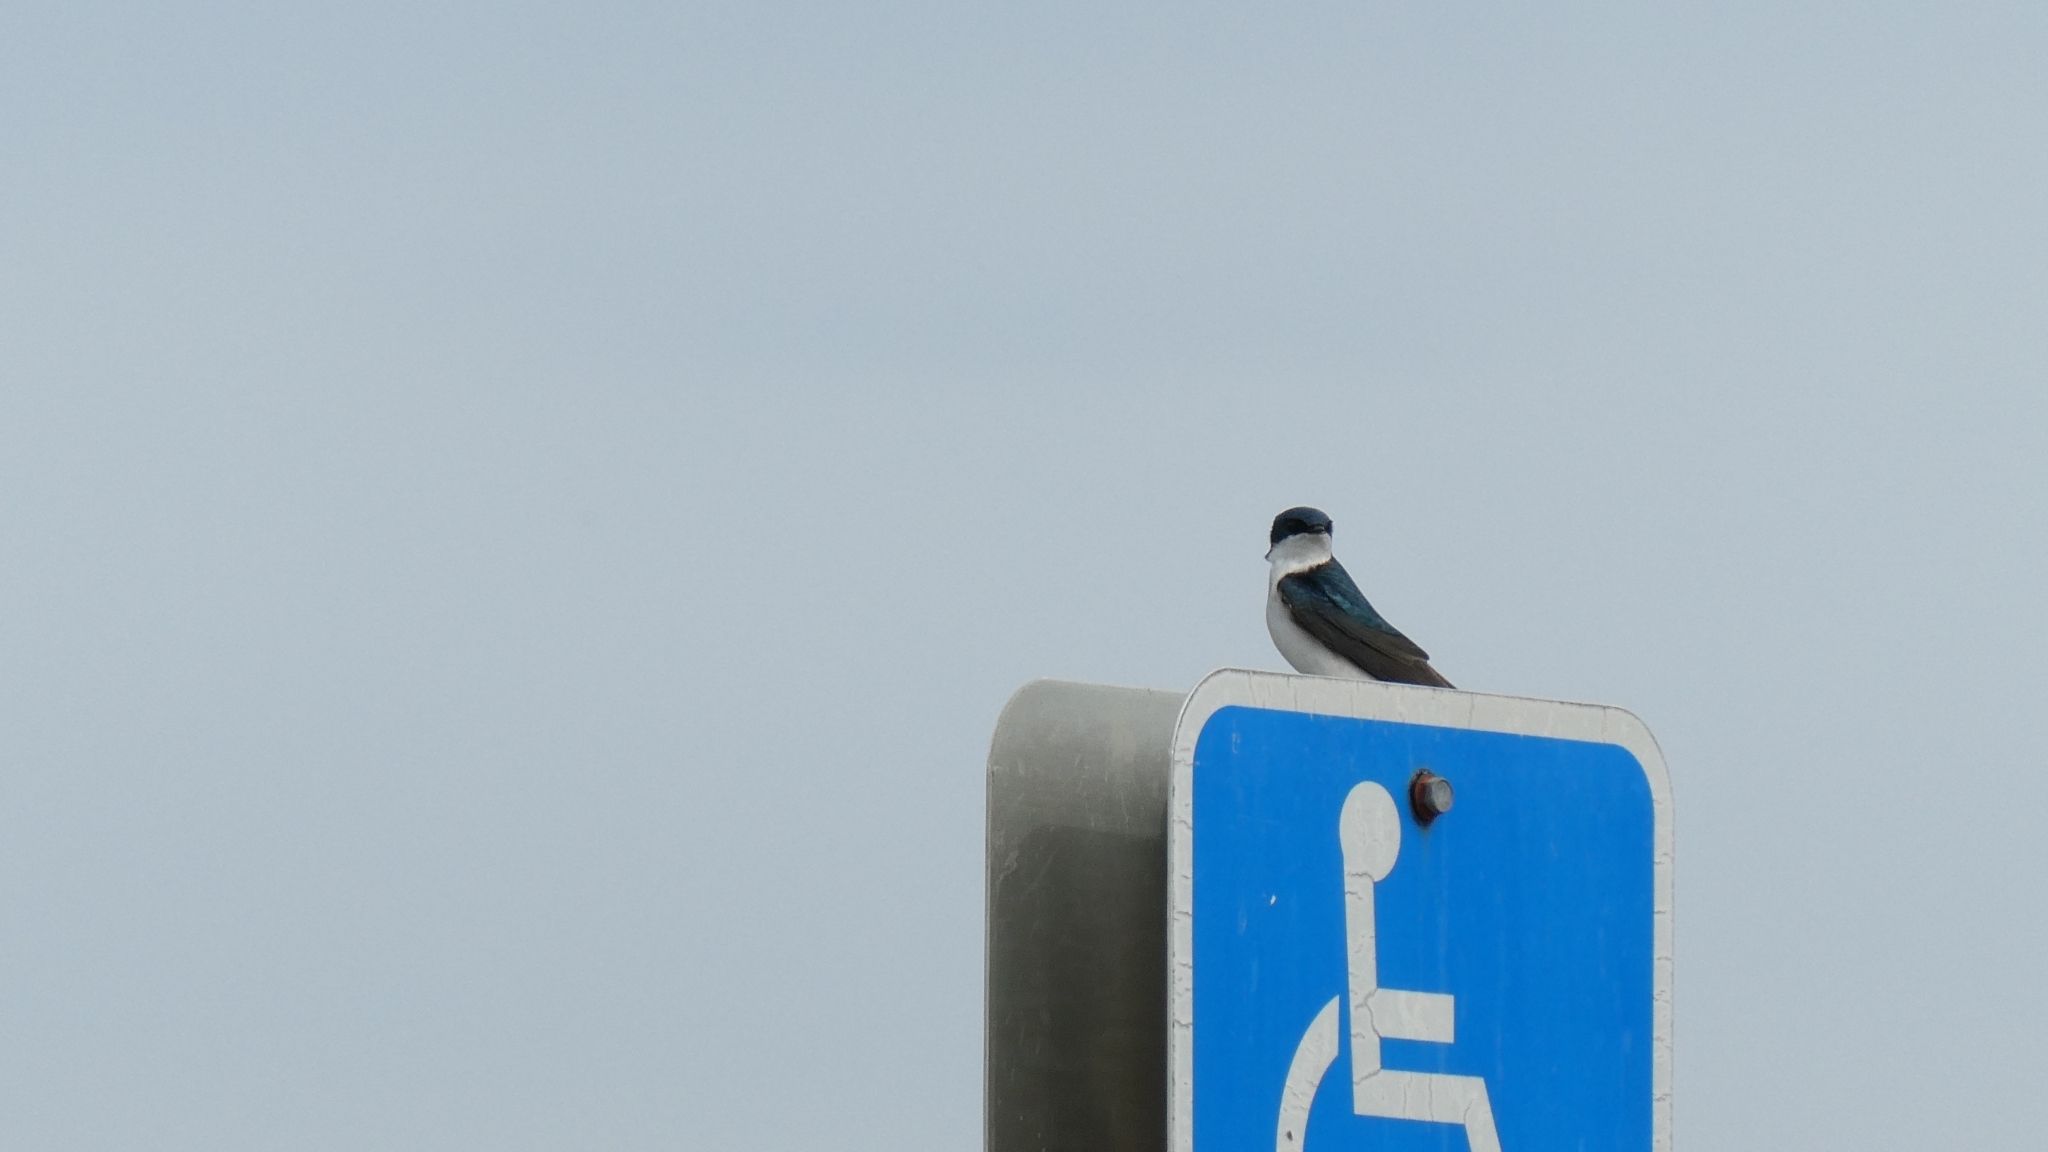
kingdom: Animalia
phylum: Chordata
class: Aves
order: Passeriformes
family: Hirundinidae
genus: Tachycineta
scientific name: Tachycineta bicolor
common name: Tree swallow
